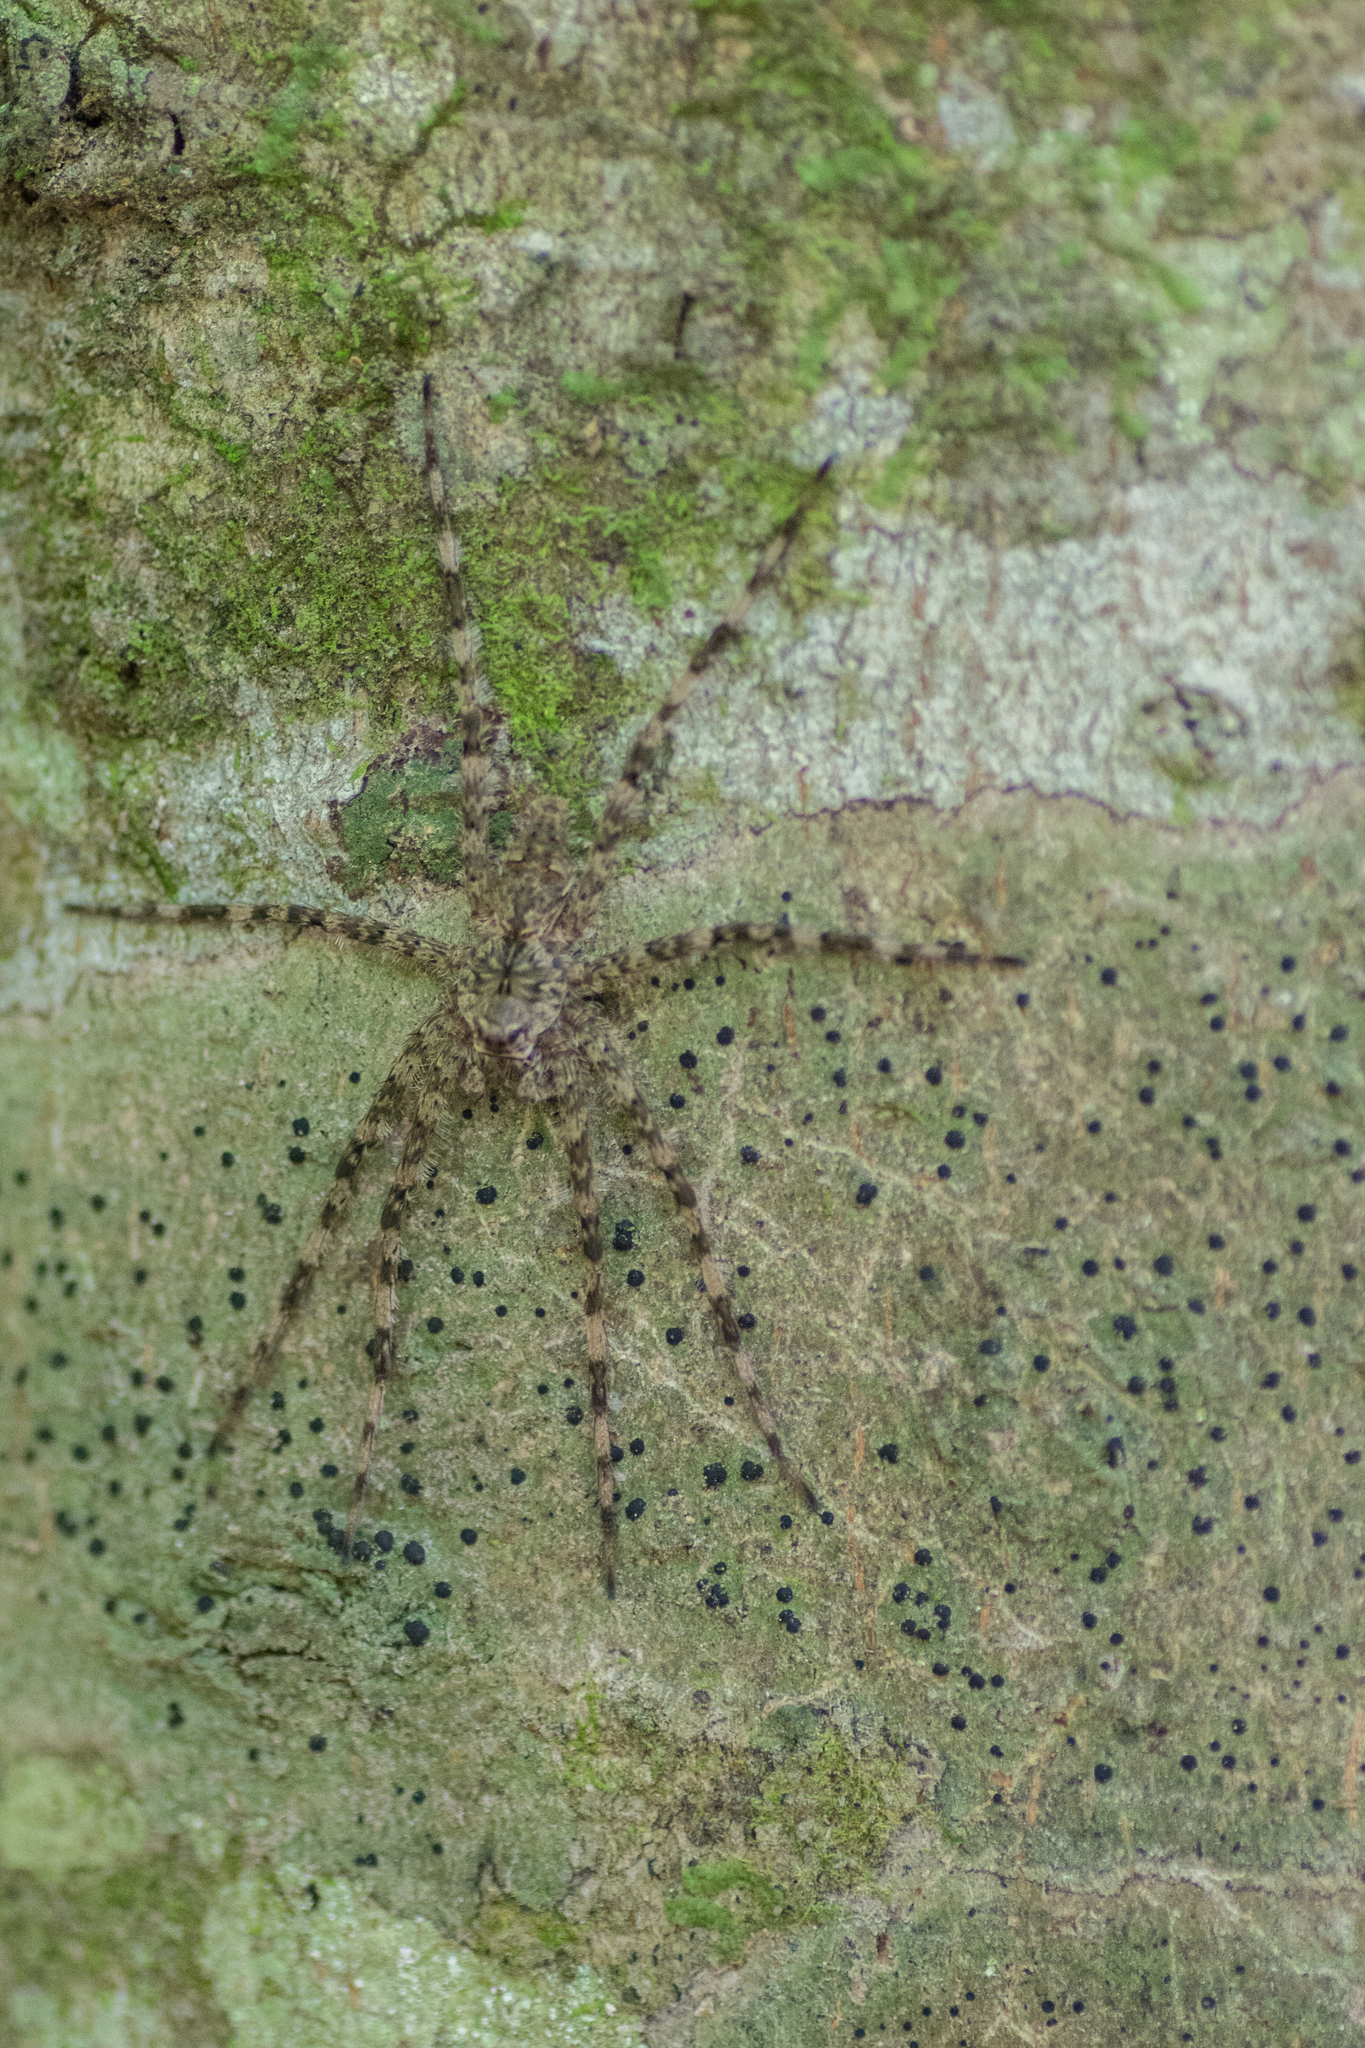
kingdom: Animalia
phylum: Arthropoda
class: Arachnida
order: Araneae
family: Pisauridae
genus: Dolomedes
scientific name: Dolomedes albineus
